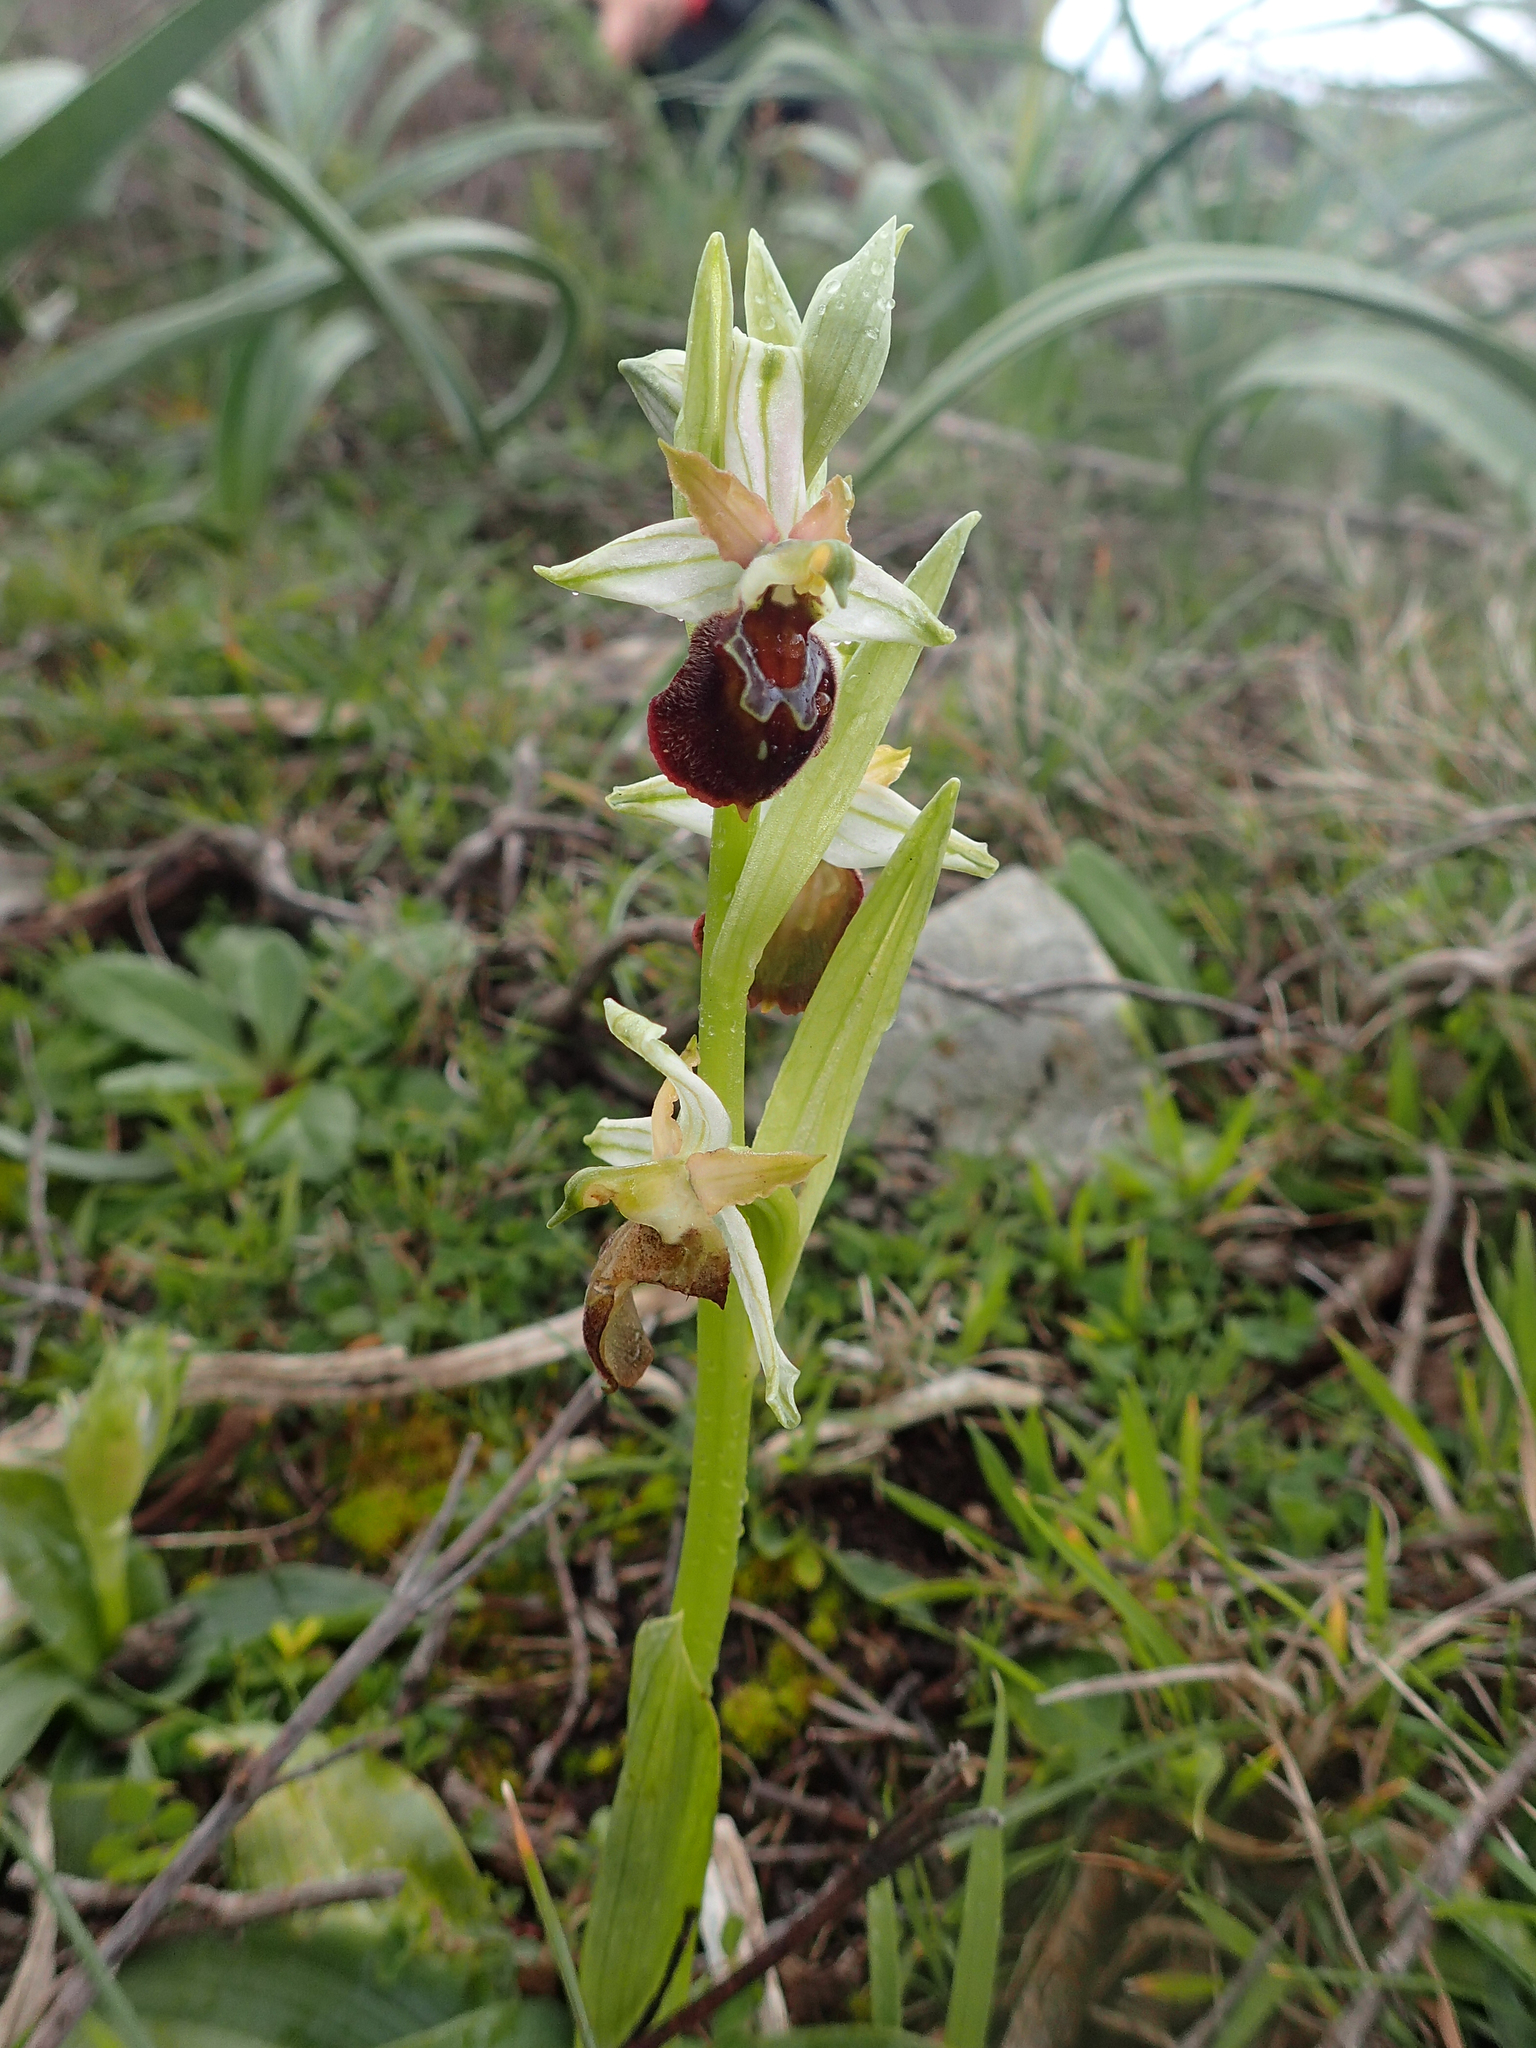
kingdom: Plantae
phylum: Tracheophyta
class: Liliopsida
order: Asparagales
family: Orchidaceae
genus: Ophrys
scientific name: Ophrys arachnitiformis
